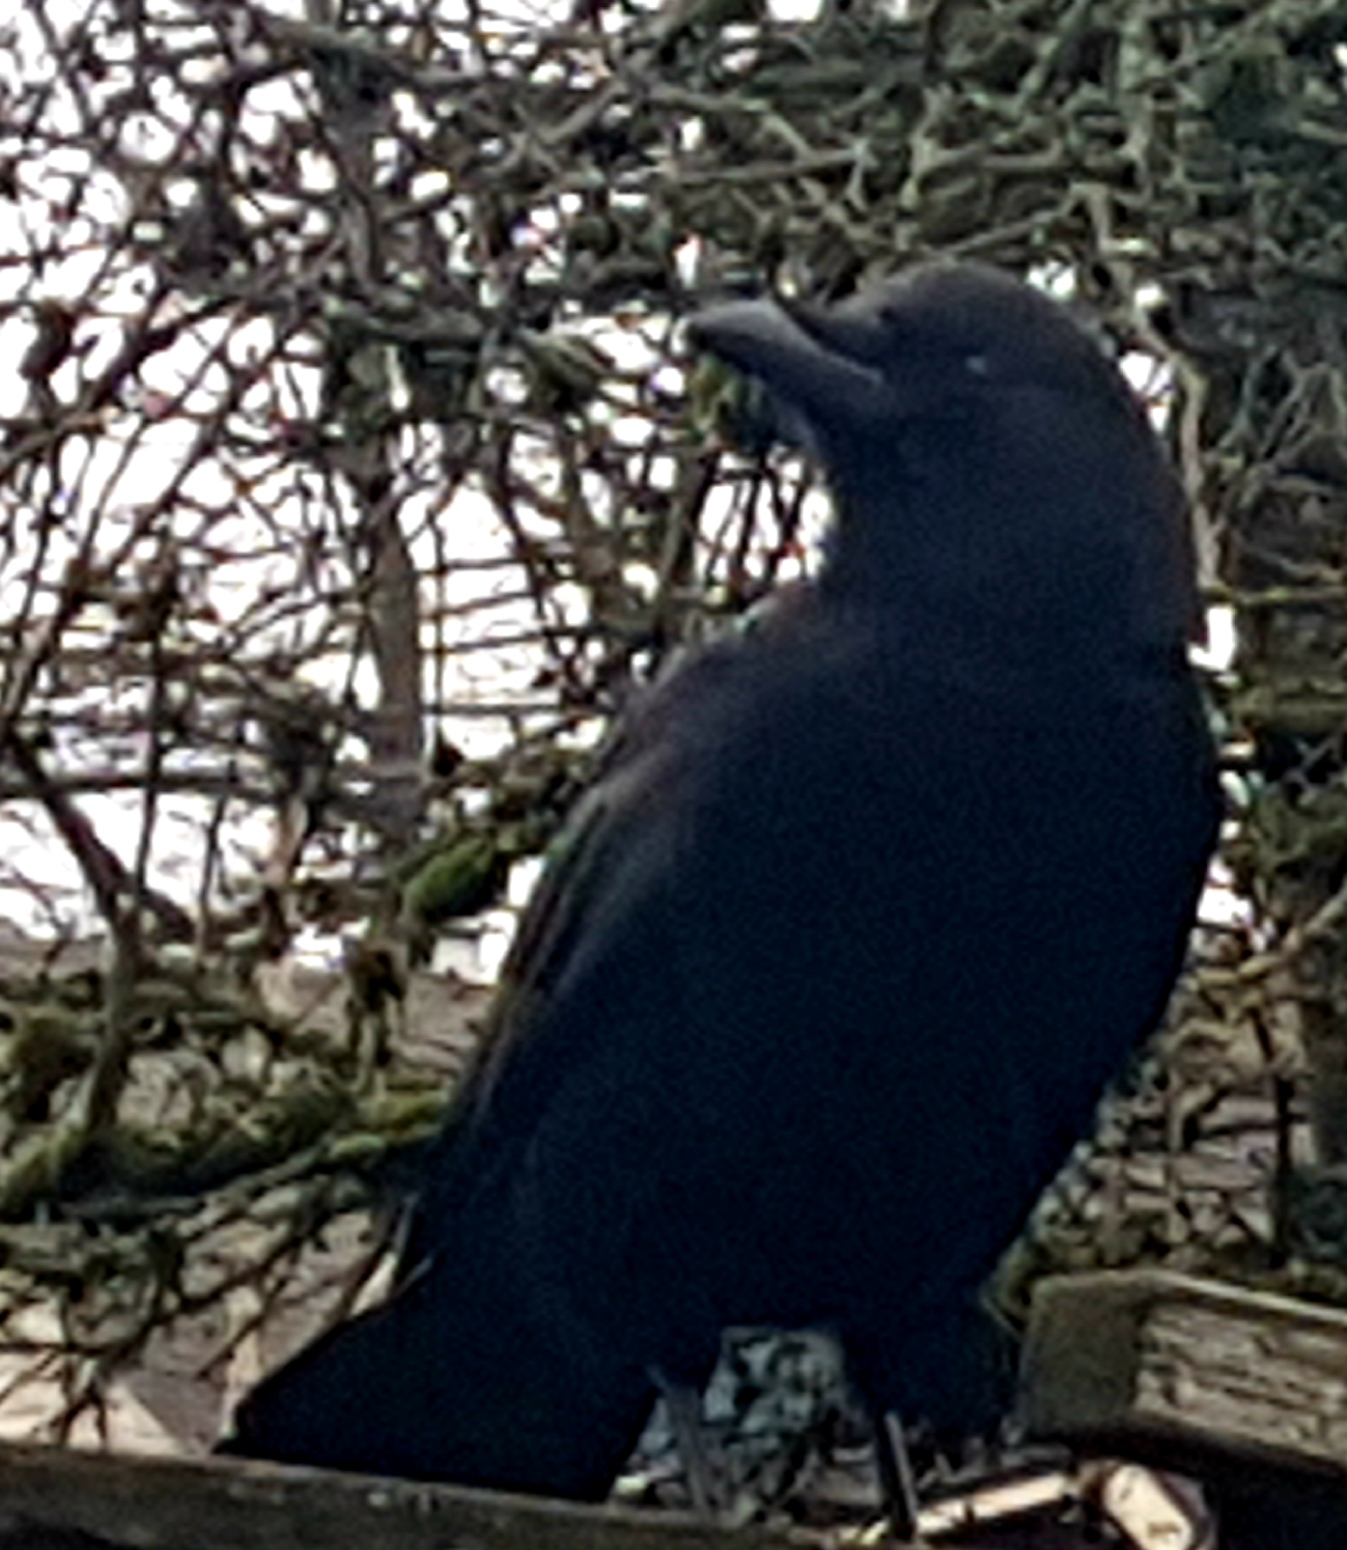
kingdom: Animalia
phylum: Chordata
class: Aves
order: Passeriformes
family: Corvidae
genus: Corvus
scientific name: Corvus brachyrhynchos
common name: American crow
